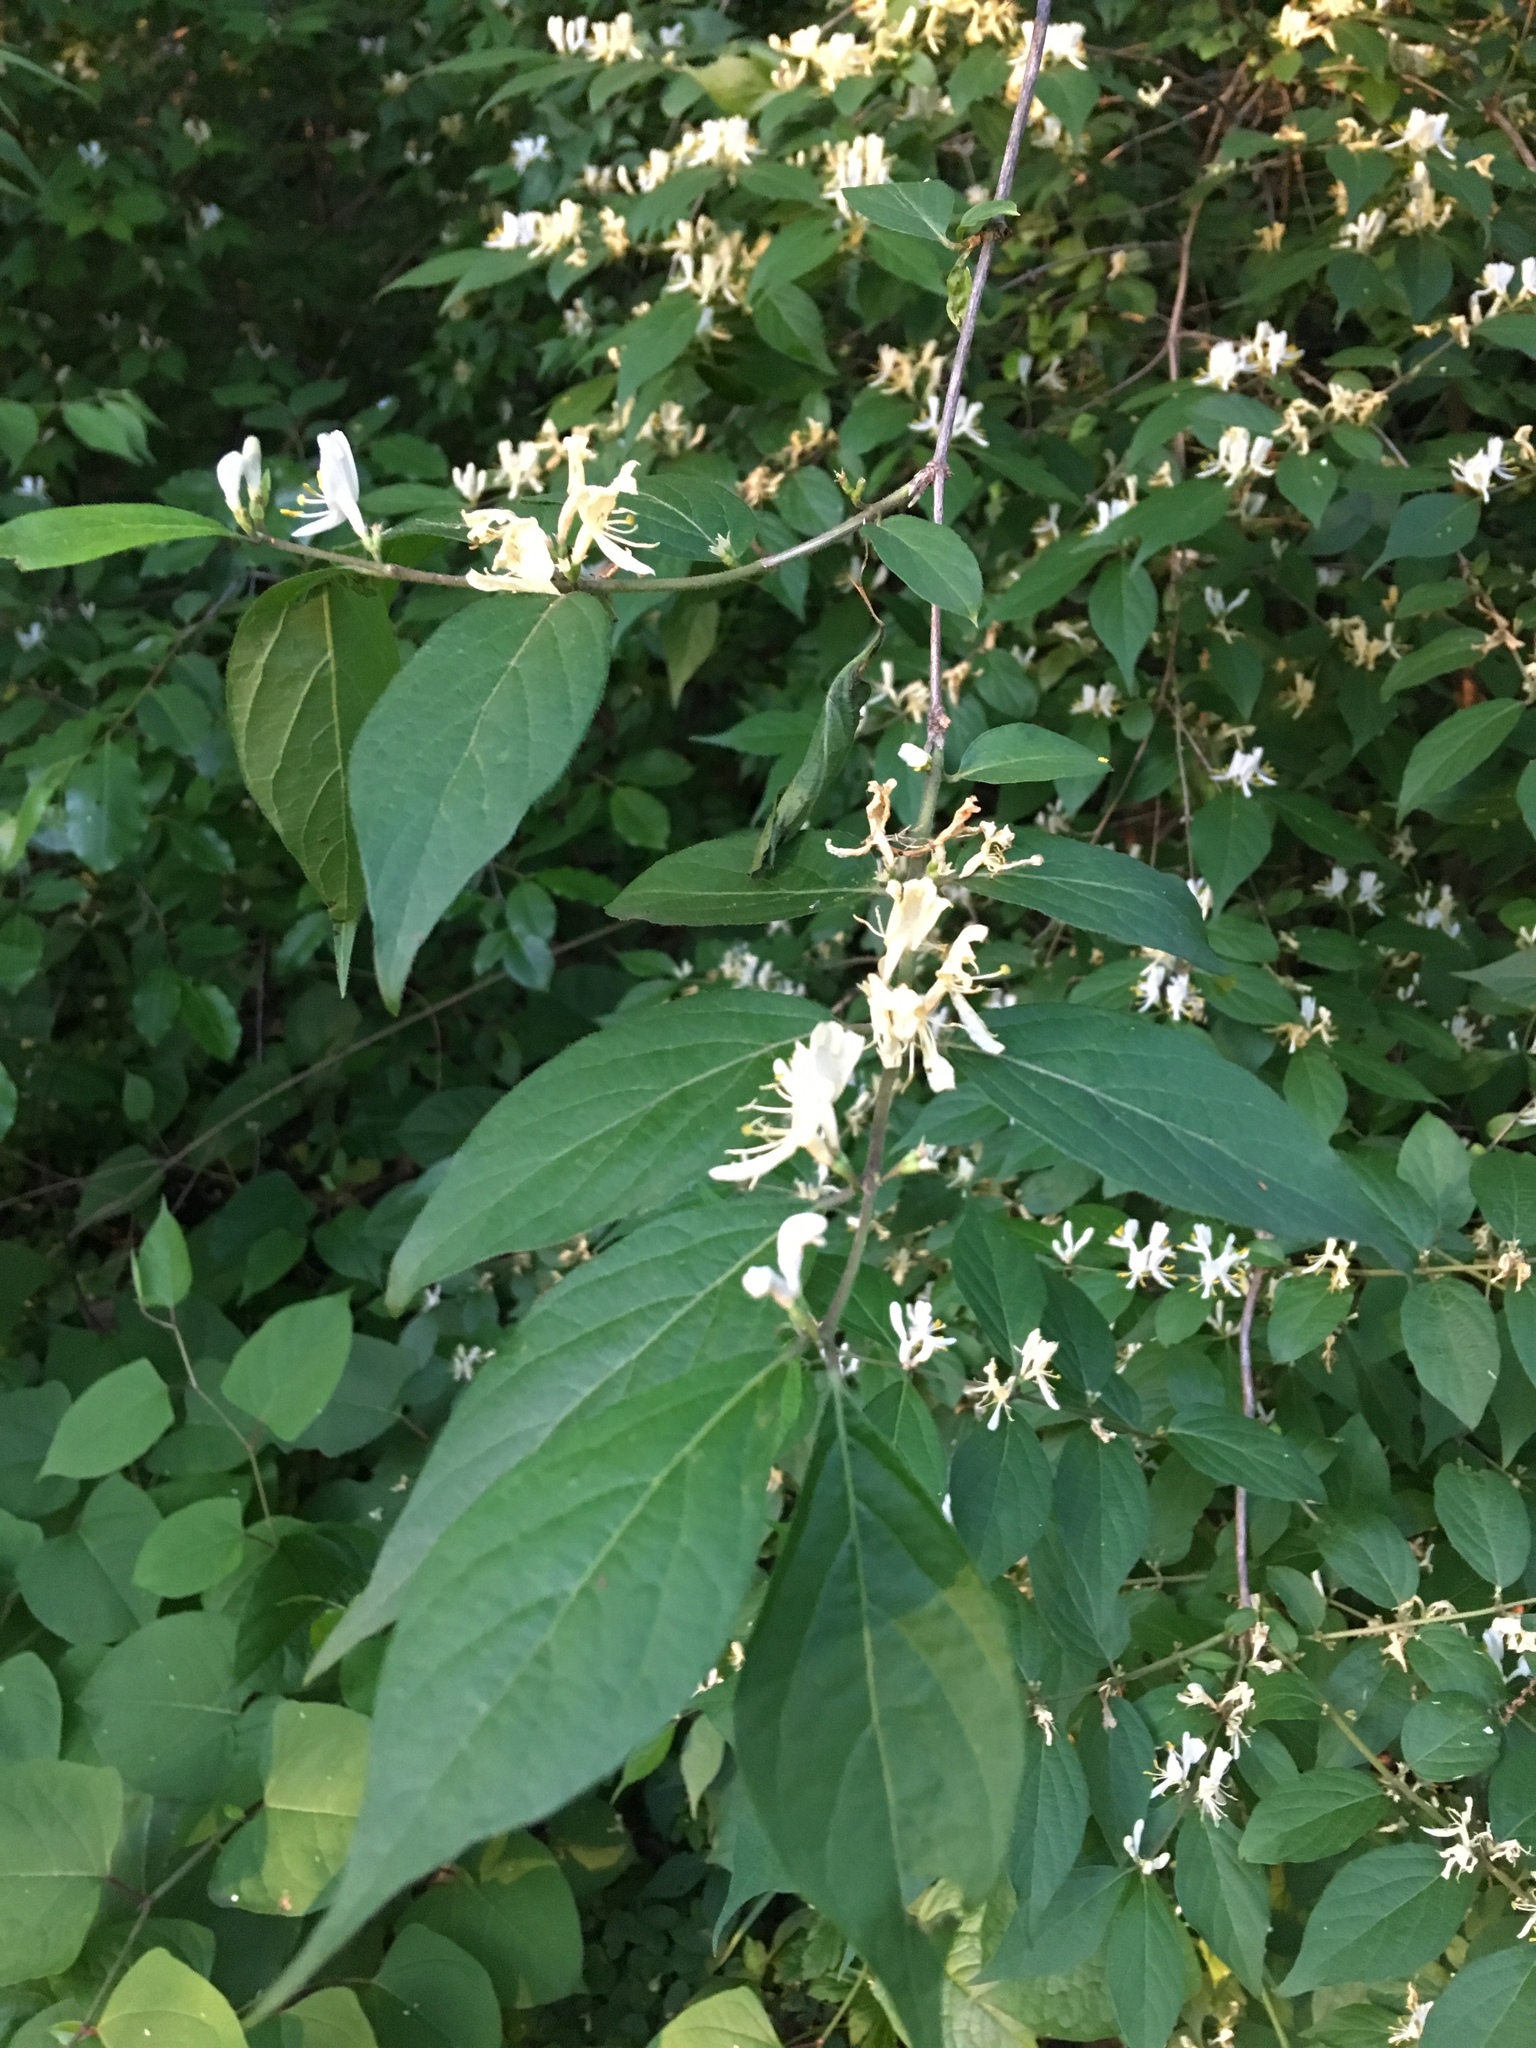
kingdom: Plantae
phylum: Tracheophyta
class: Magnoliopsida
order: Dipsacales
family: Caprifoliaceae
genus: Lonicera
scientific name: Lonicera maackii
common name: Amur honeysuckle
